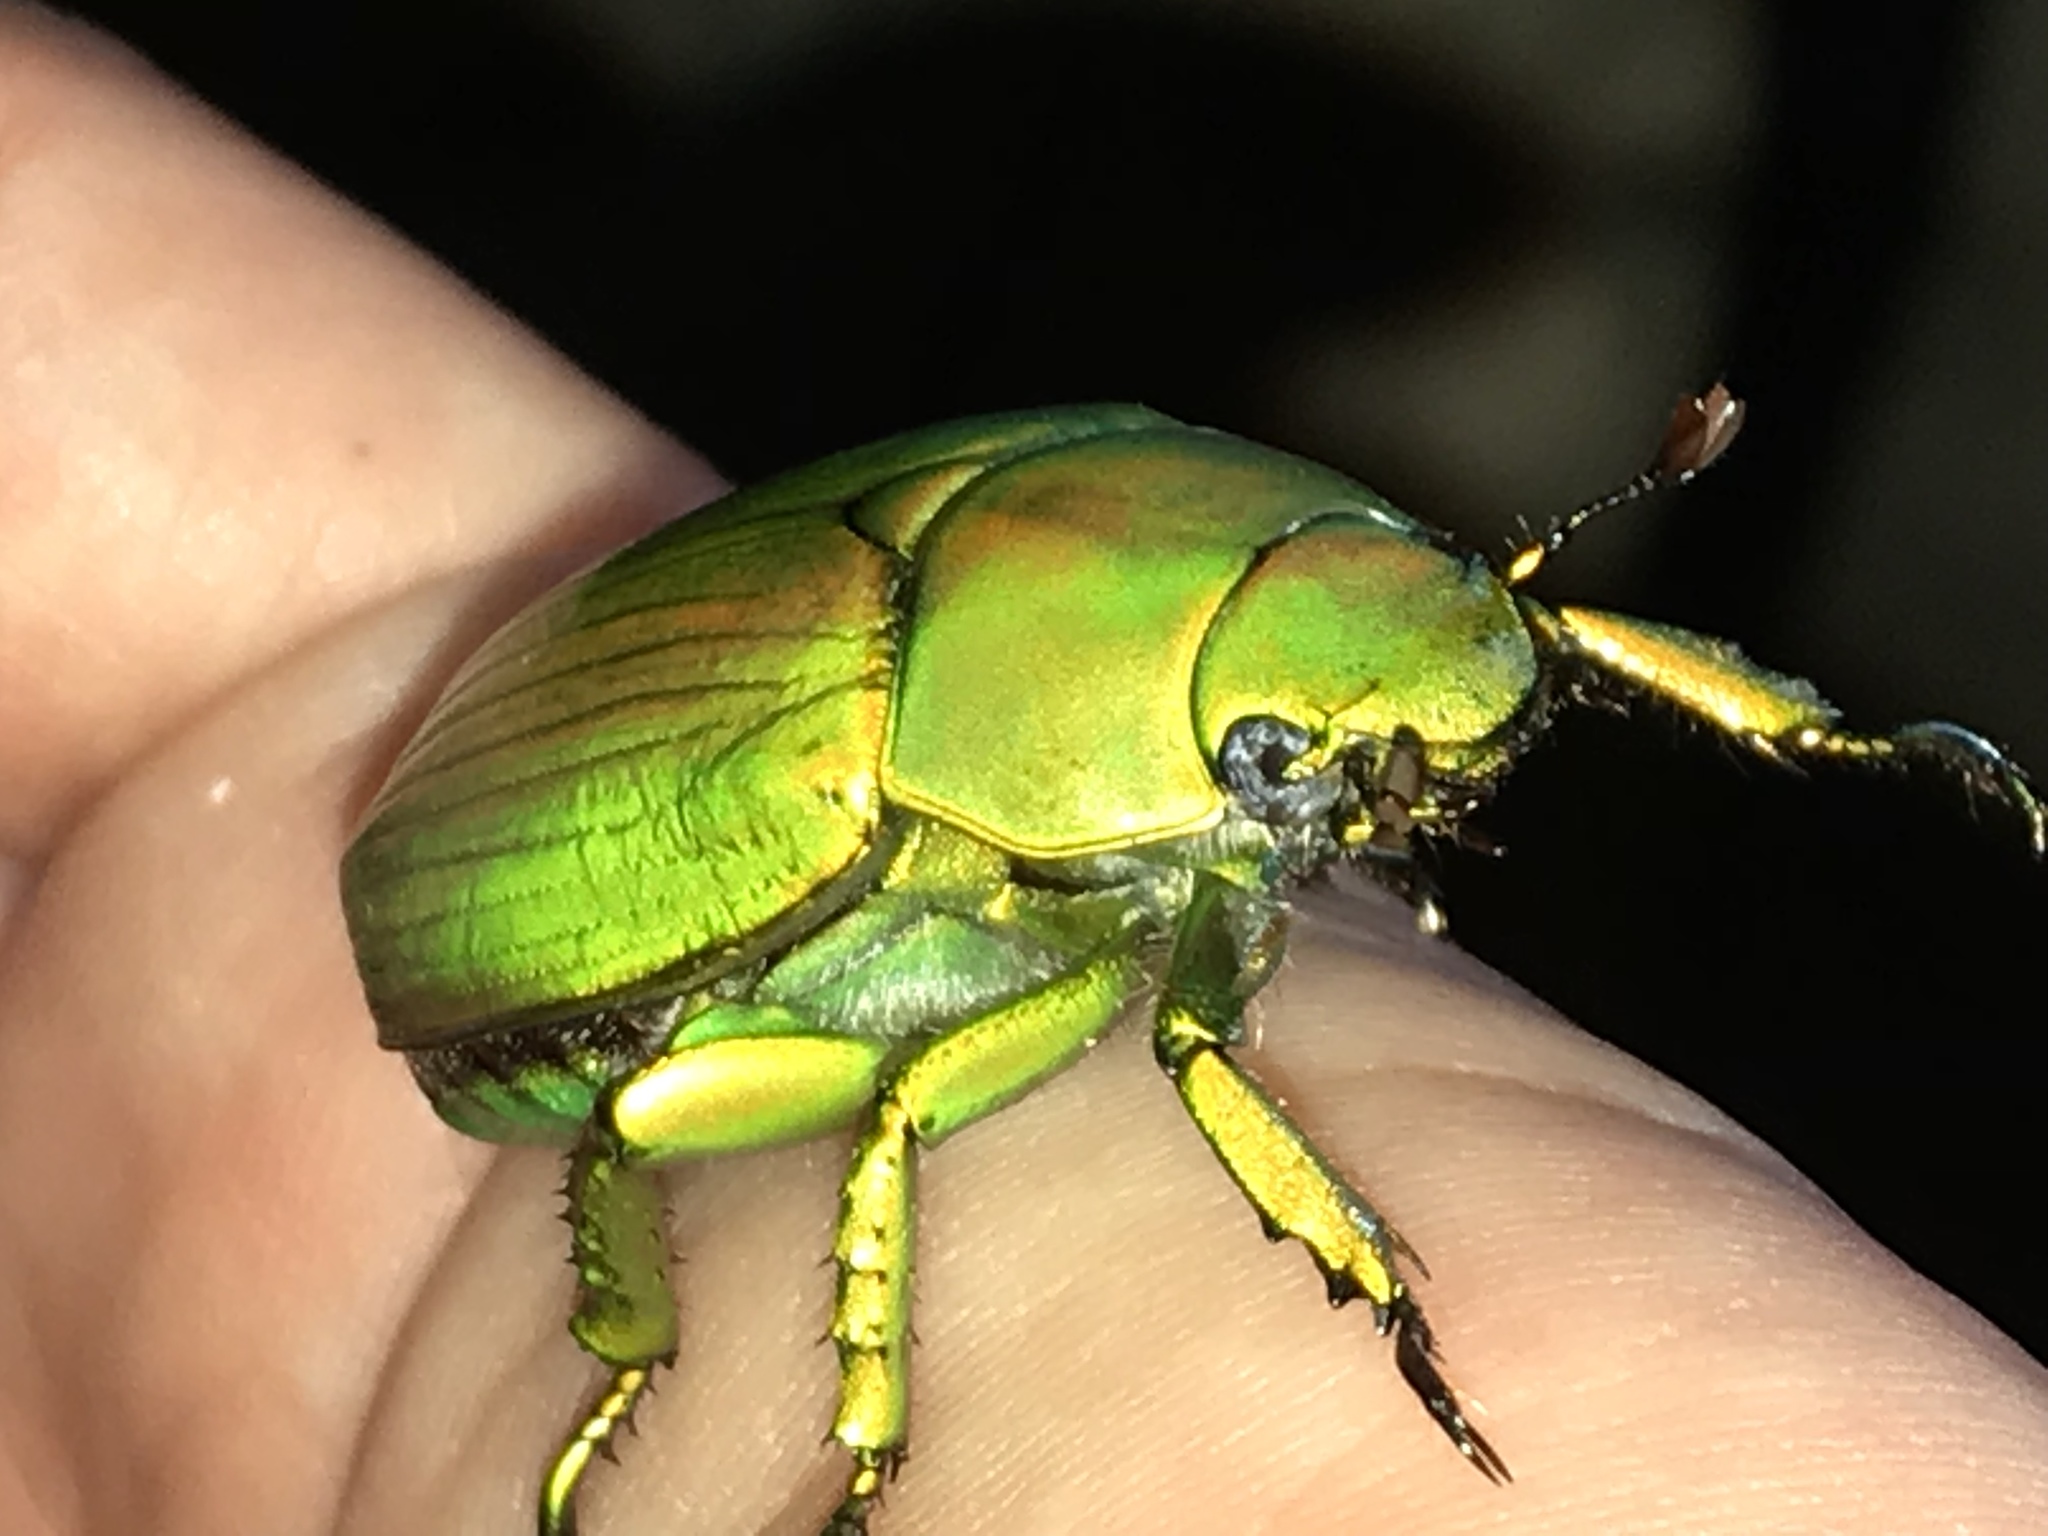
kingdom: Animalia
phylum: Arthropoda
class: Insecta
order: Coleoptera
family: Scarabaeidae
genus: Chrysina
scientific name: Chrysina psittacina
